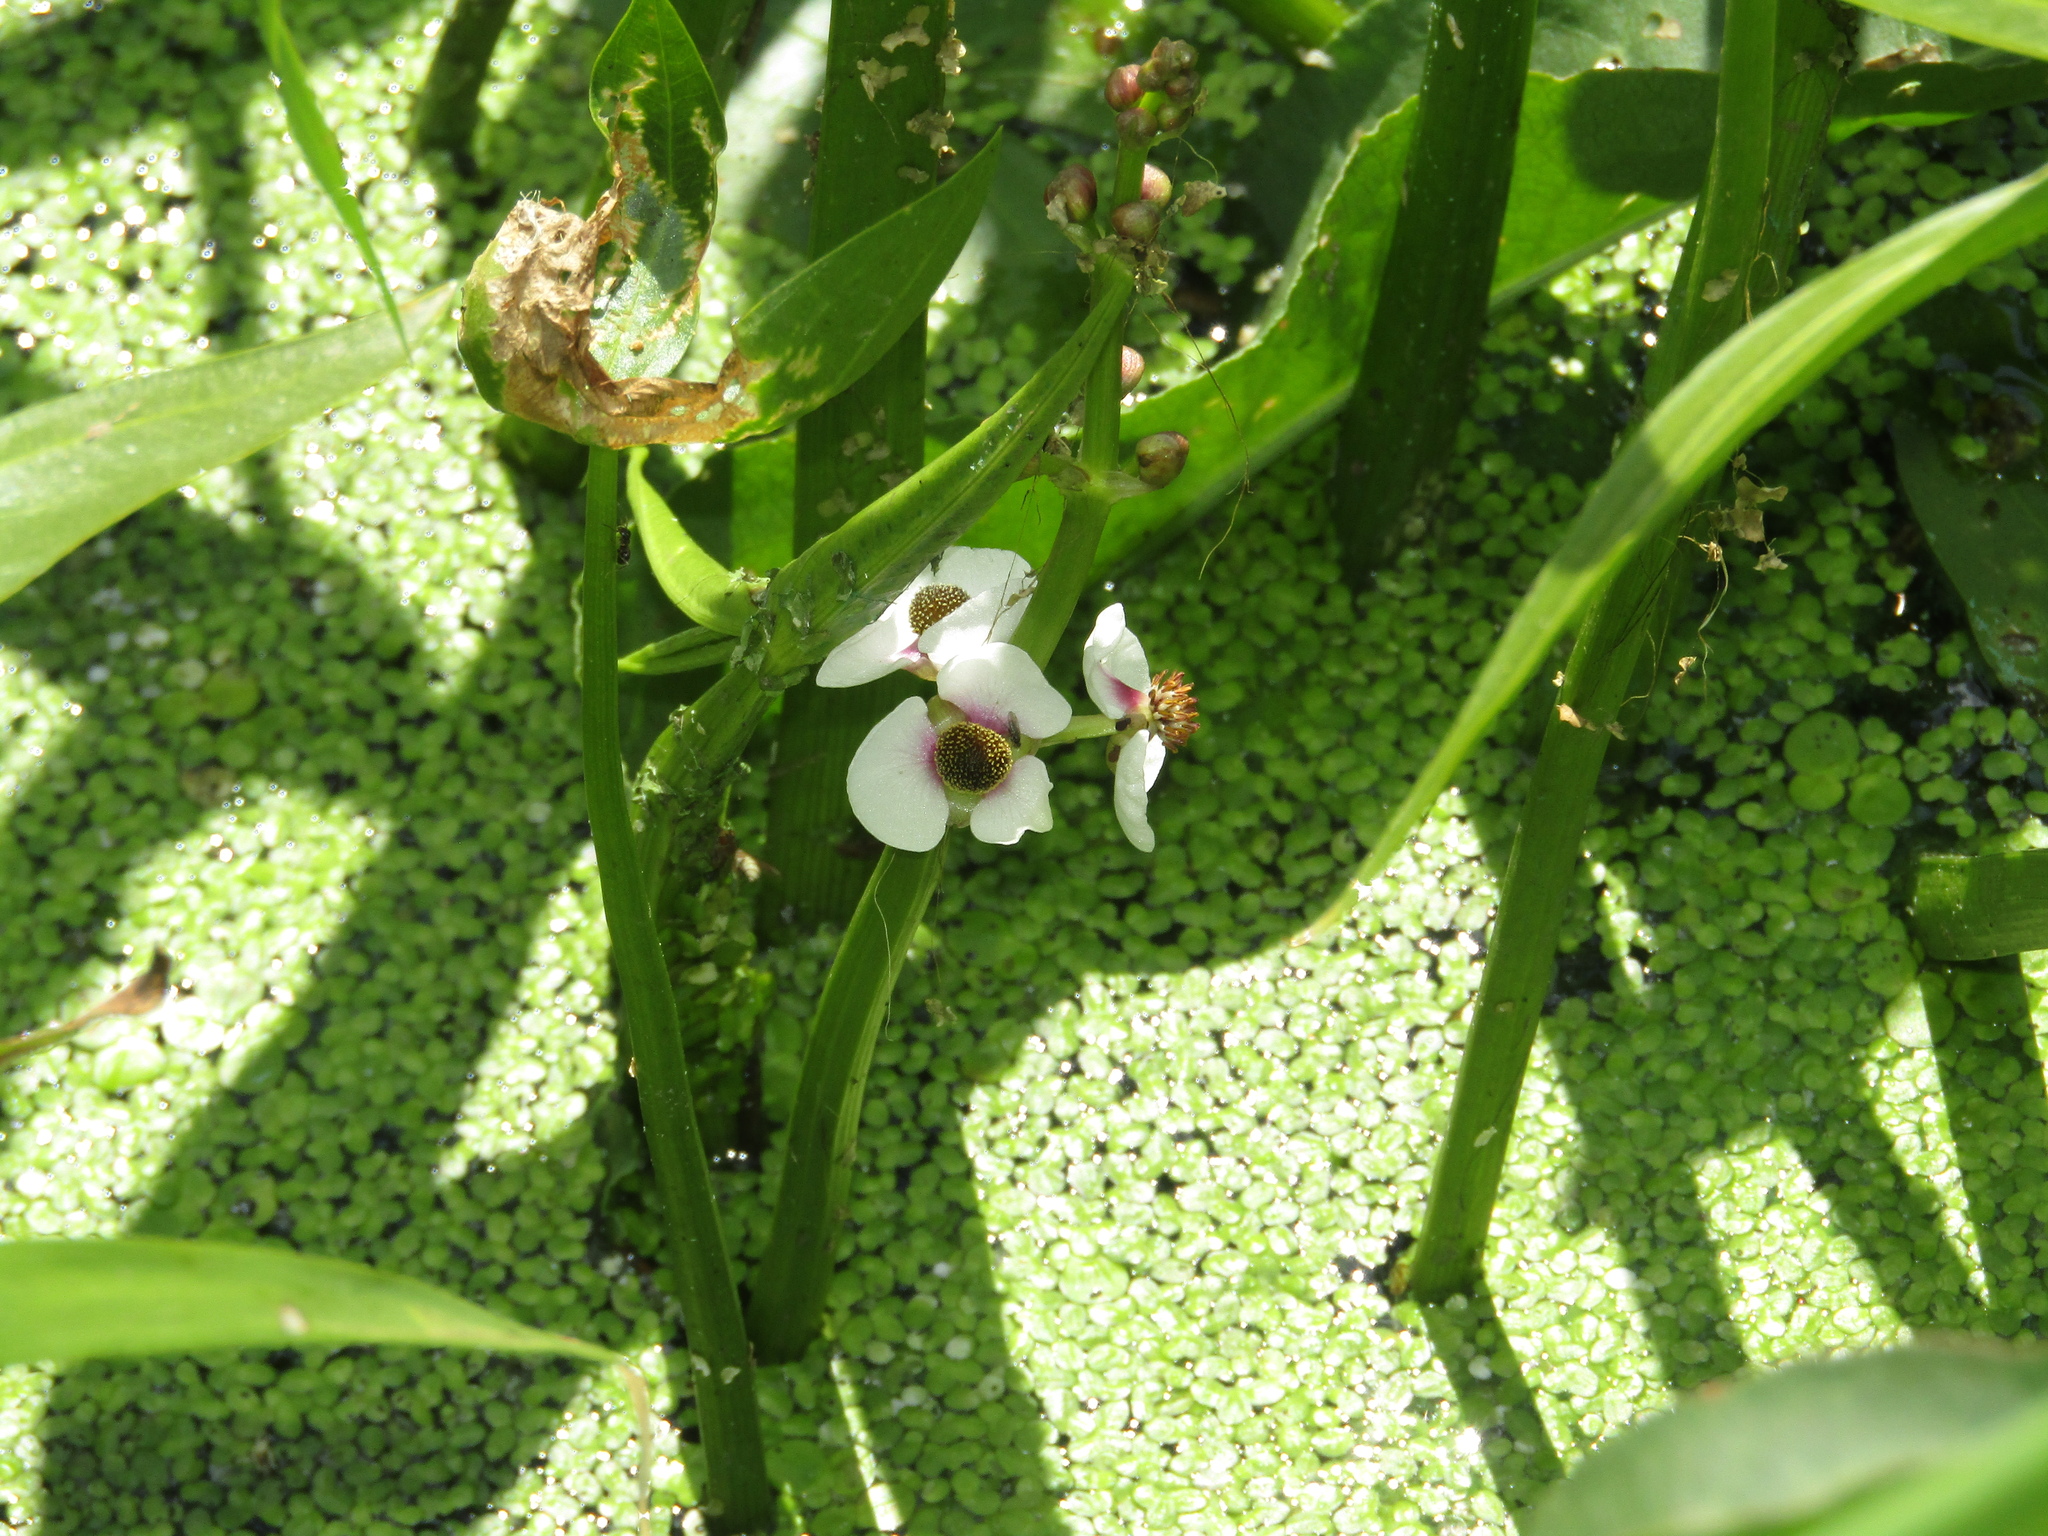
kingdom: Plantae
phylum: Tracheophyta
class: Liliopsida
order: Alismatales
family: Alismataceae
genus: Sagittaria
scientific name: Sagittaria sagittifolia
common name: Arrowhead
